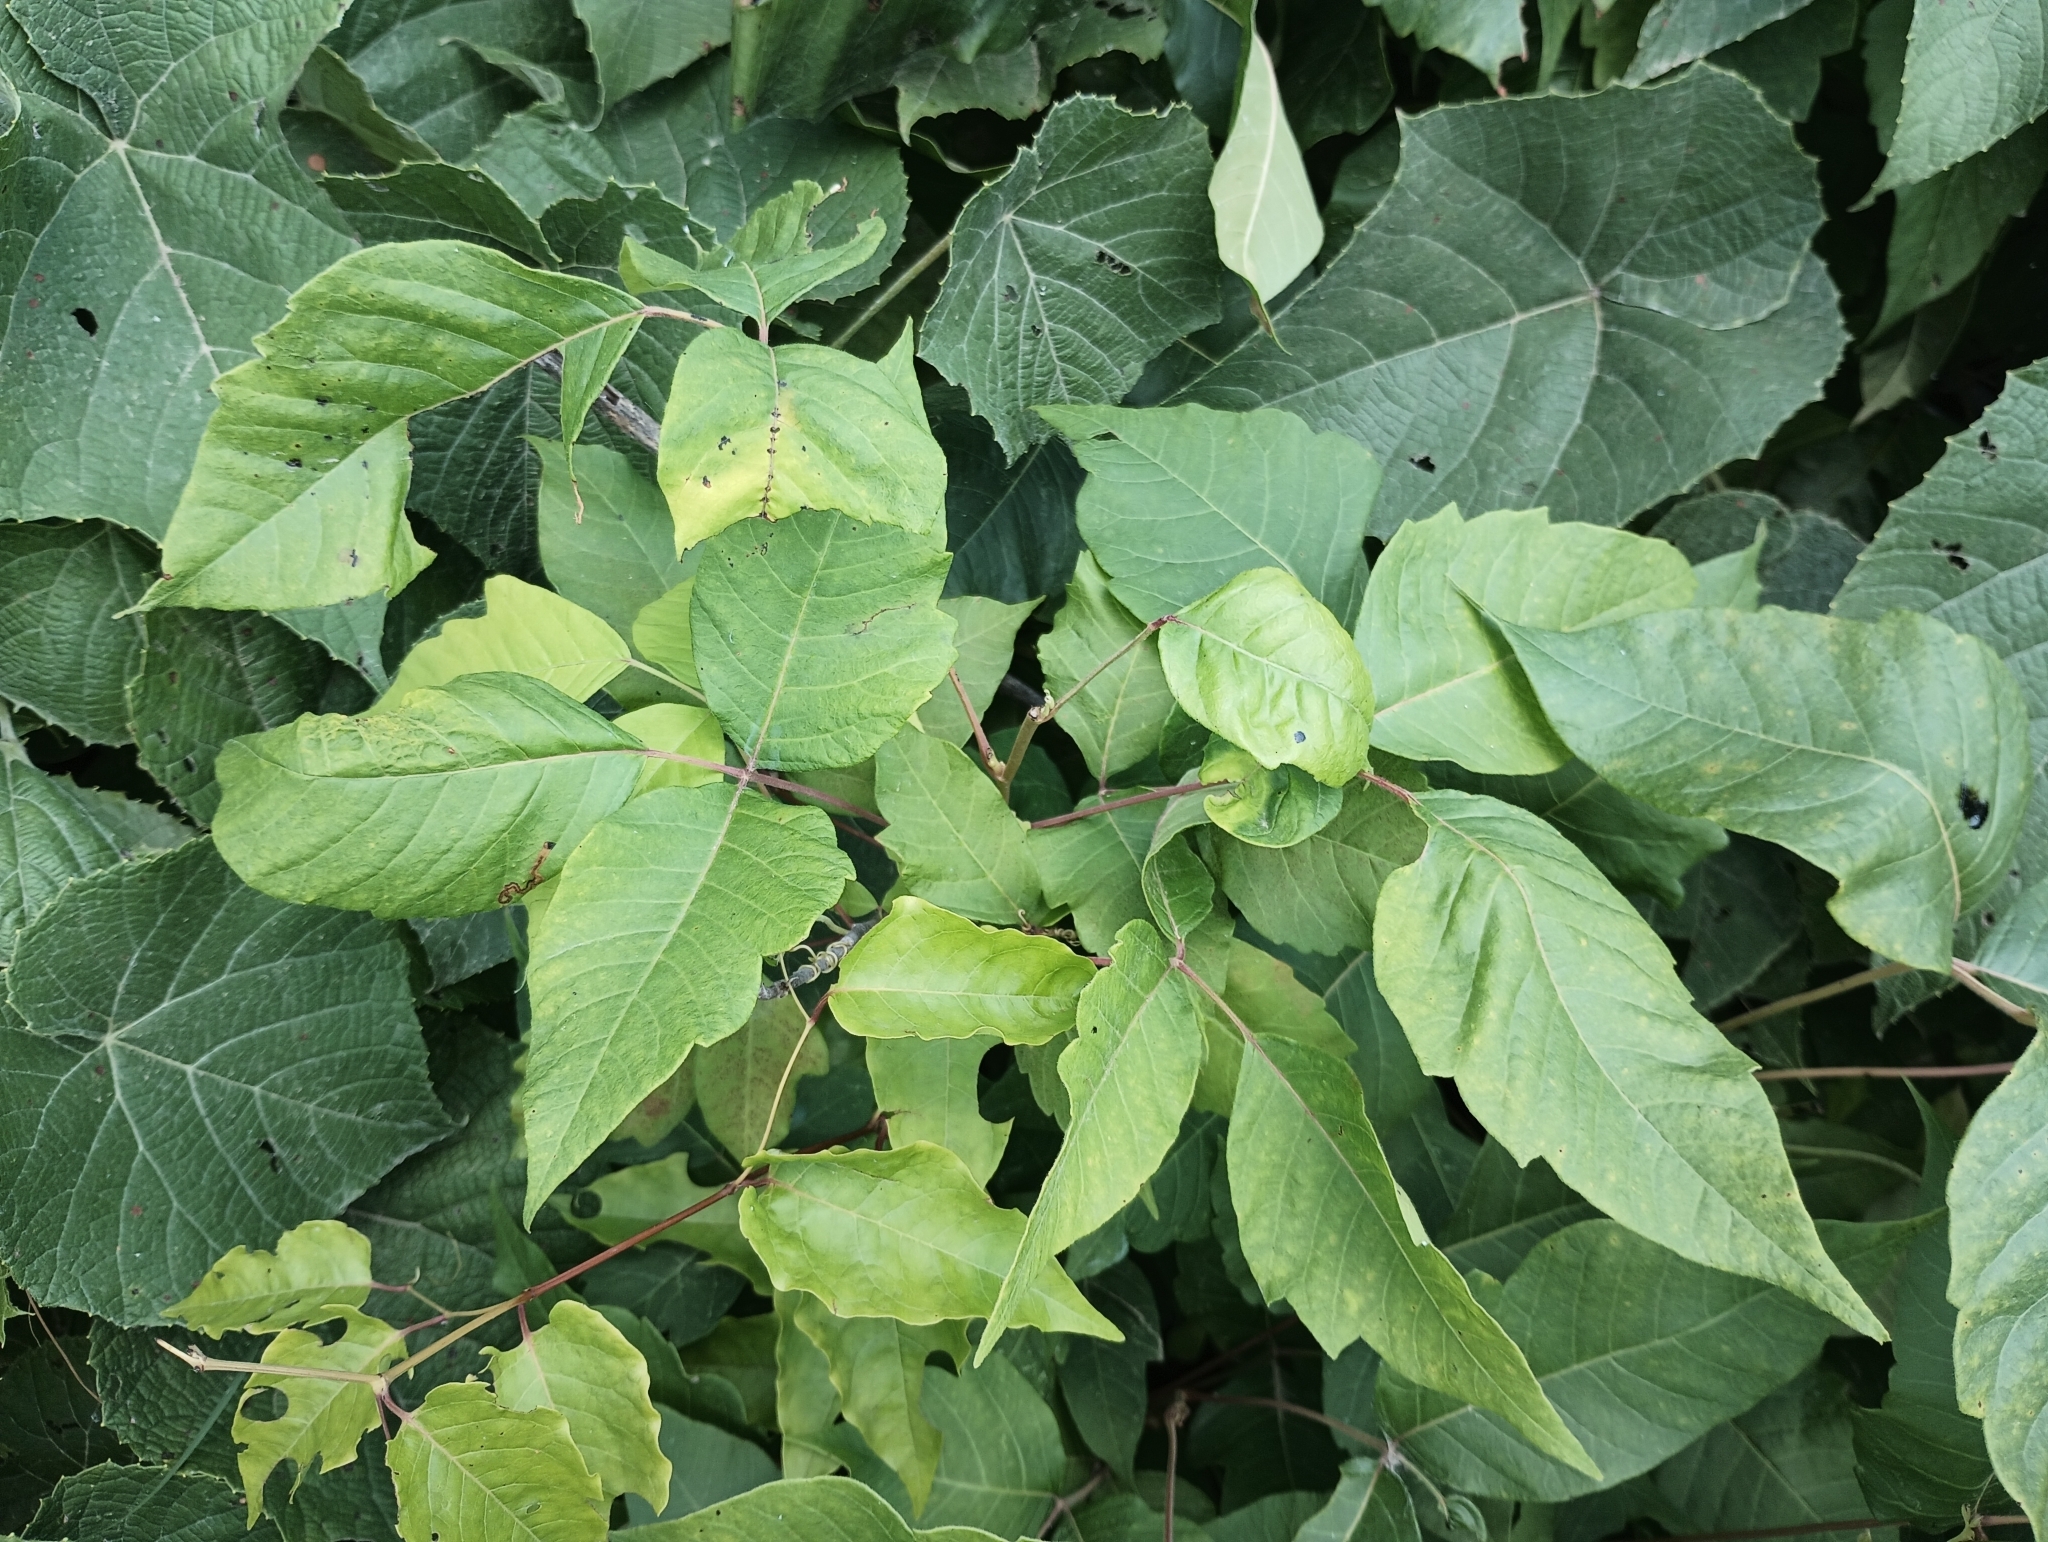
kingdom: Plantae
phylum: Tracheophyta
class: Magnoliopsida
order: Sapindales
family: Anacardiaceae
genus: Toxicodendron
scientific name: Toxicodendron radicans
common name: Poison ivy
